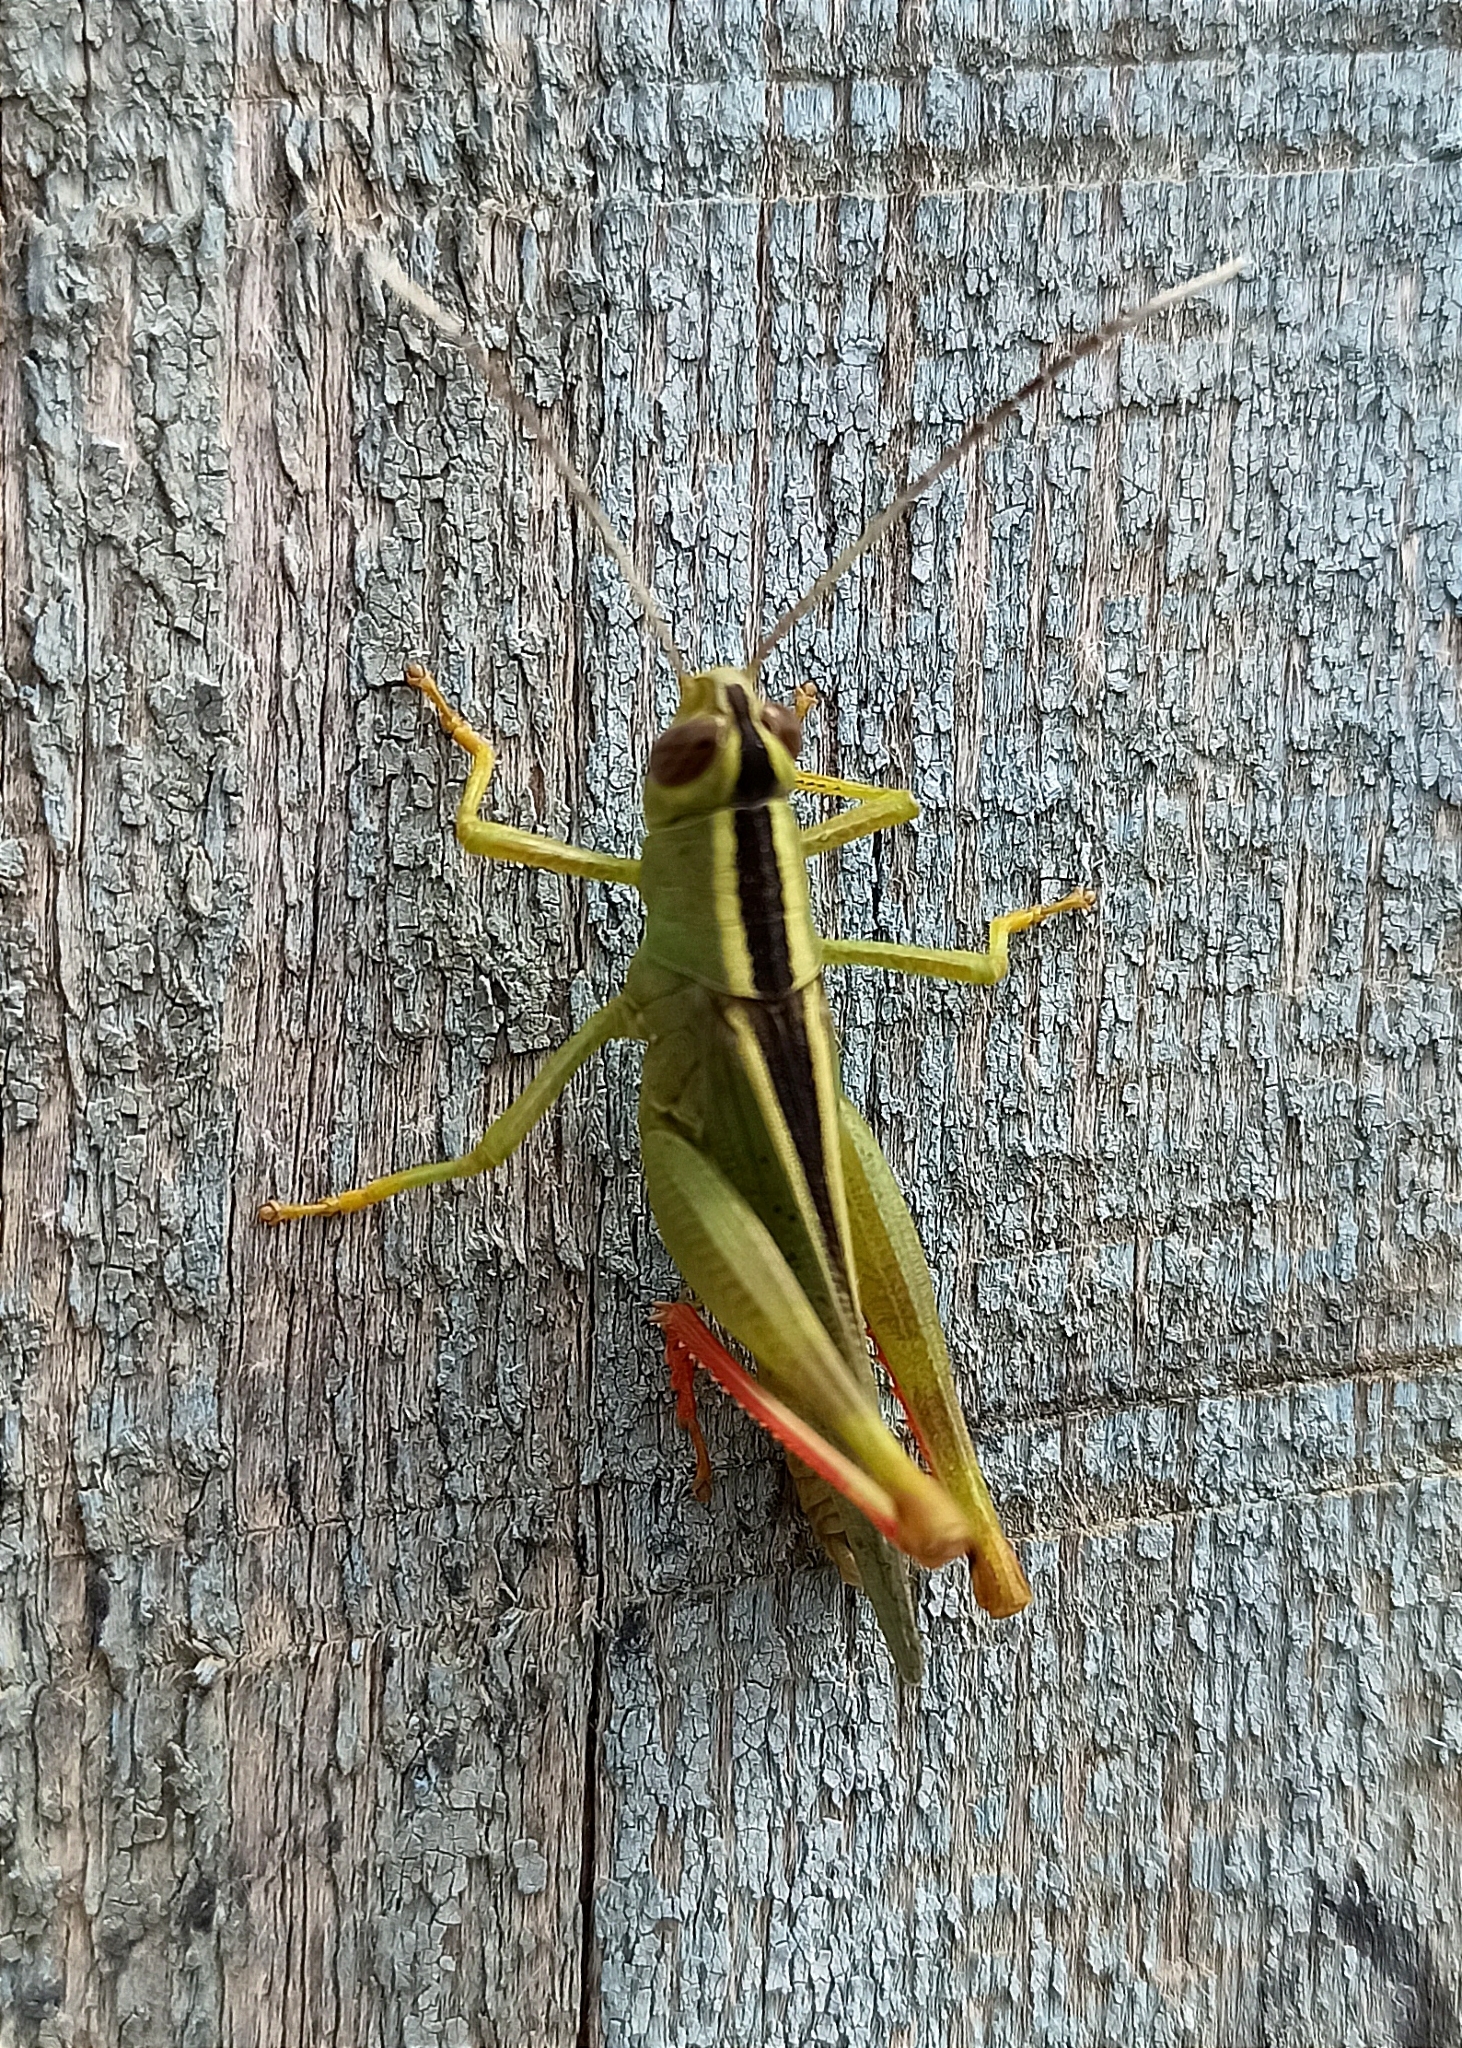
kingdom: Animalia
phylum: Arthropoda
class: Insecta
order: Orthoptera
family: Acrididae
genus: Heteracris
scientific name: Heteracris pterosticha
